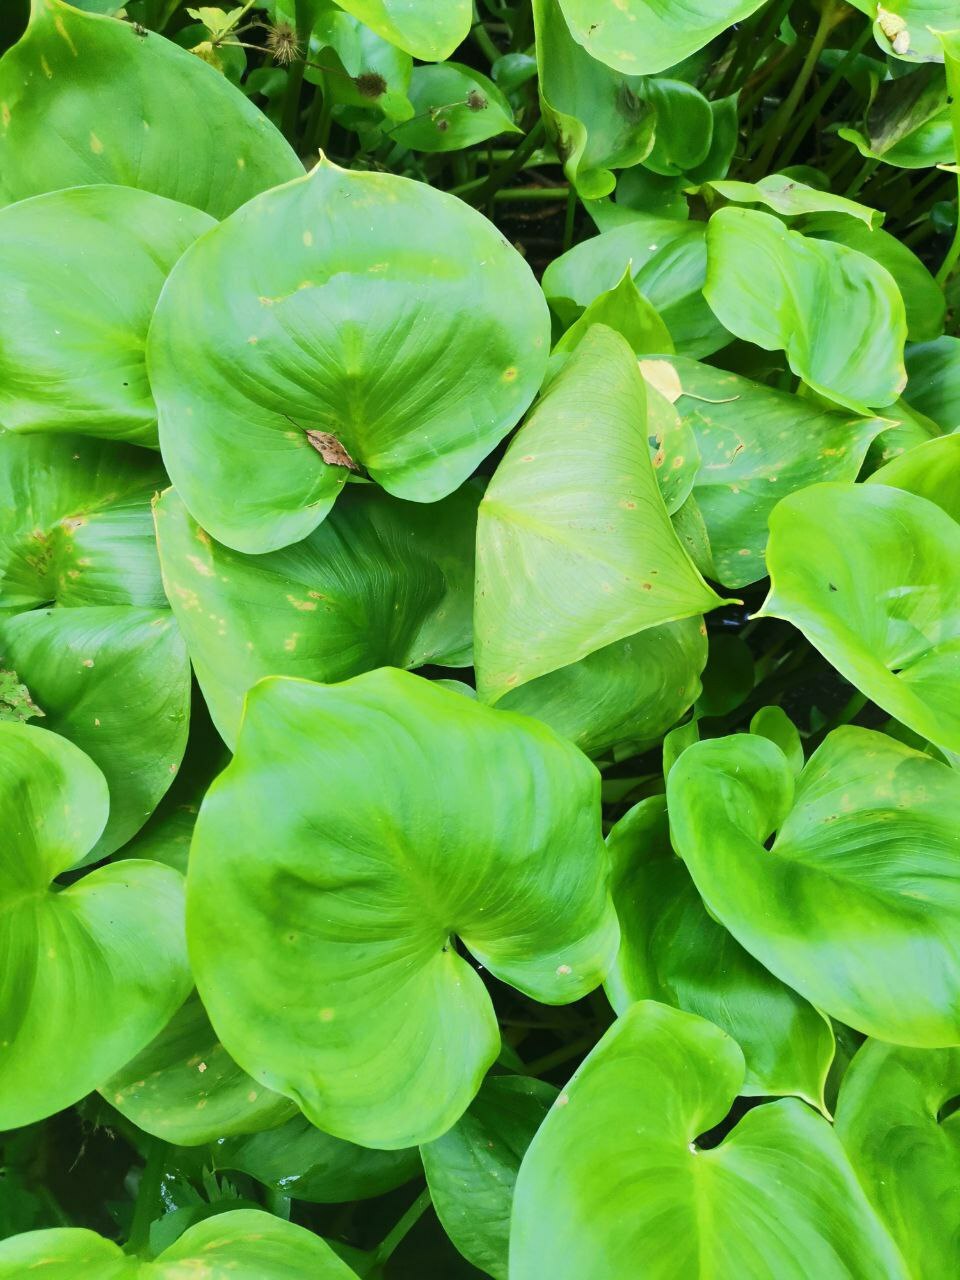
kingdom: Plantae
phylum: Tracheophyta
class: Liliopsida
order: Alismatales
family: Araceae
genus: Calla
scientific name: Calla palustris
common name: Bog arum
